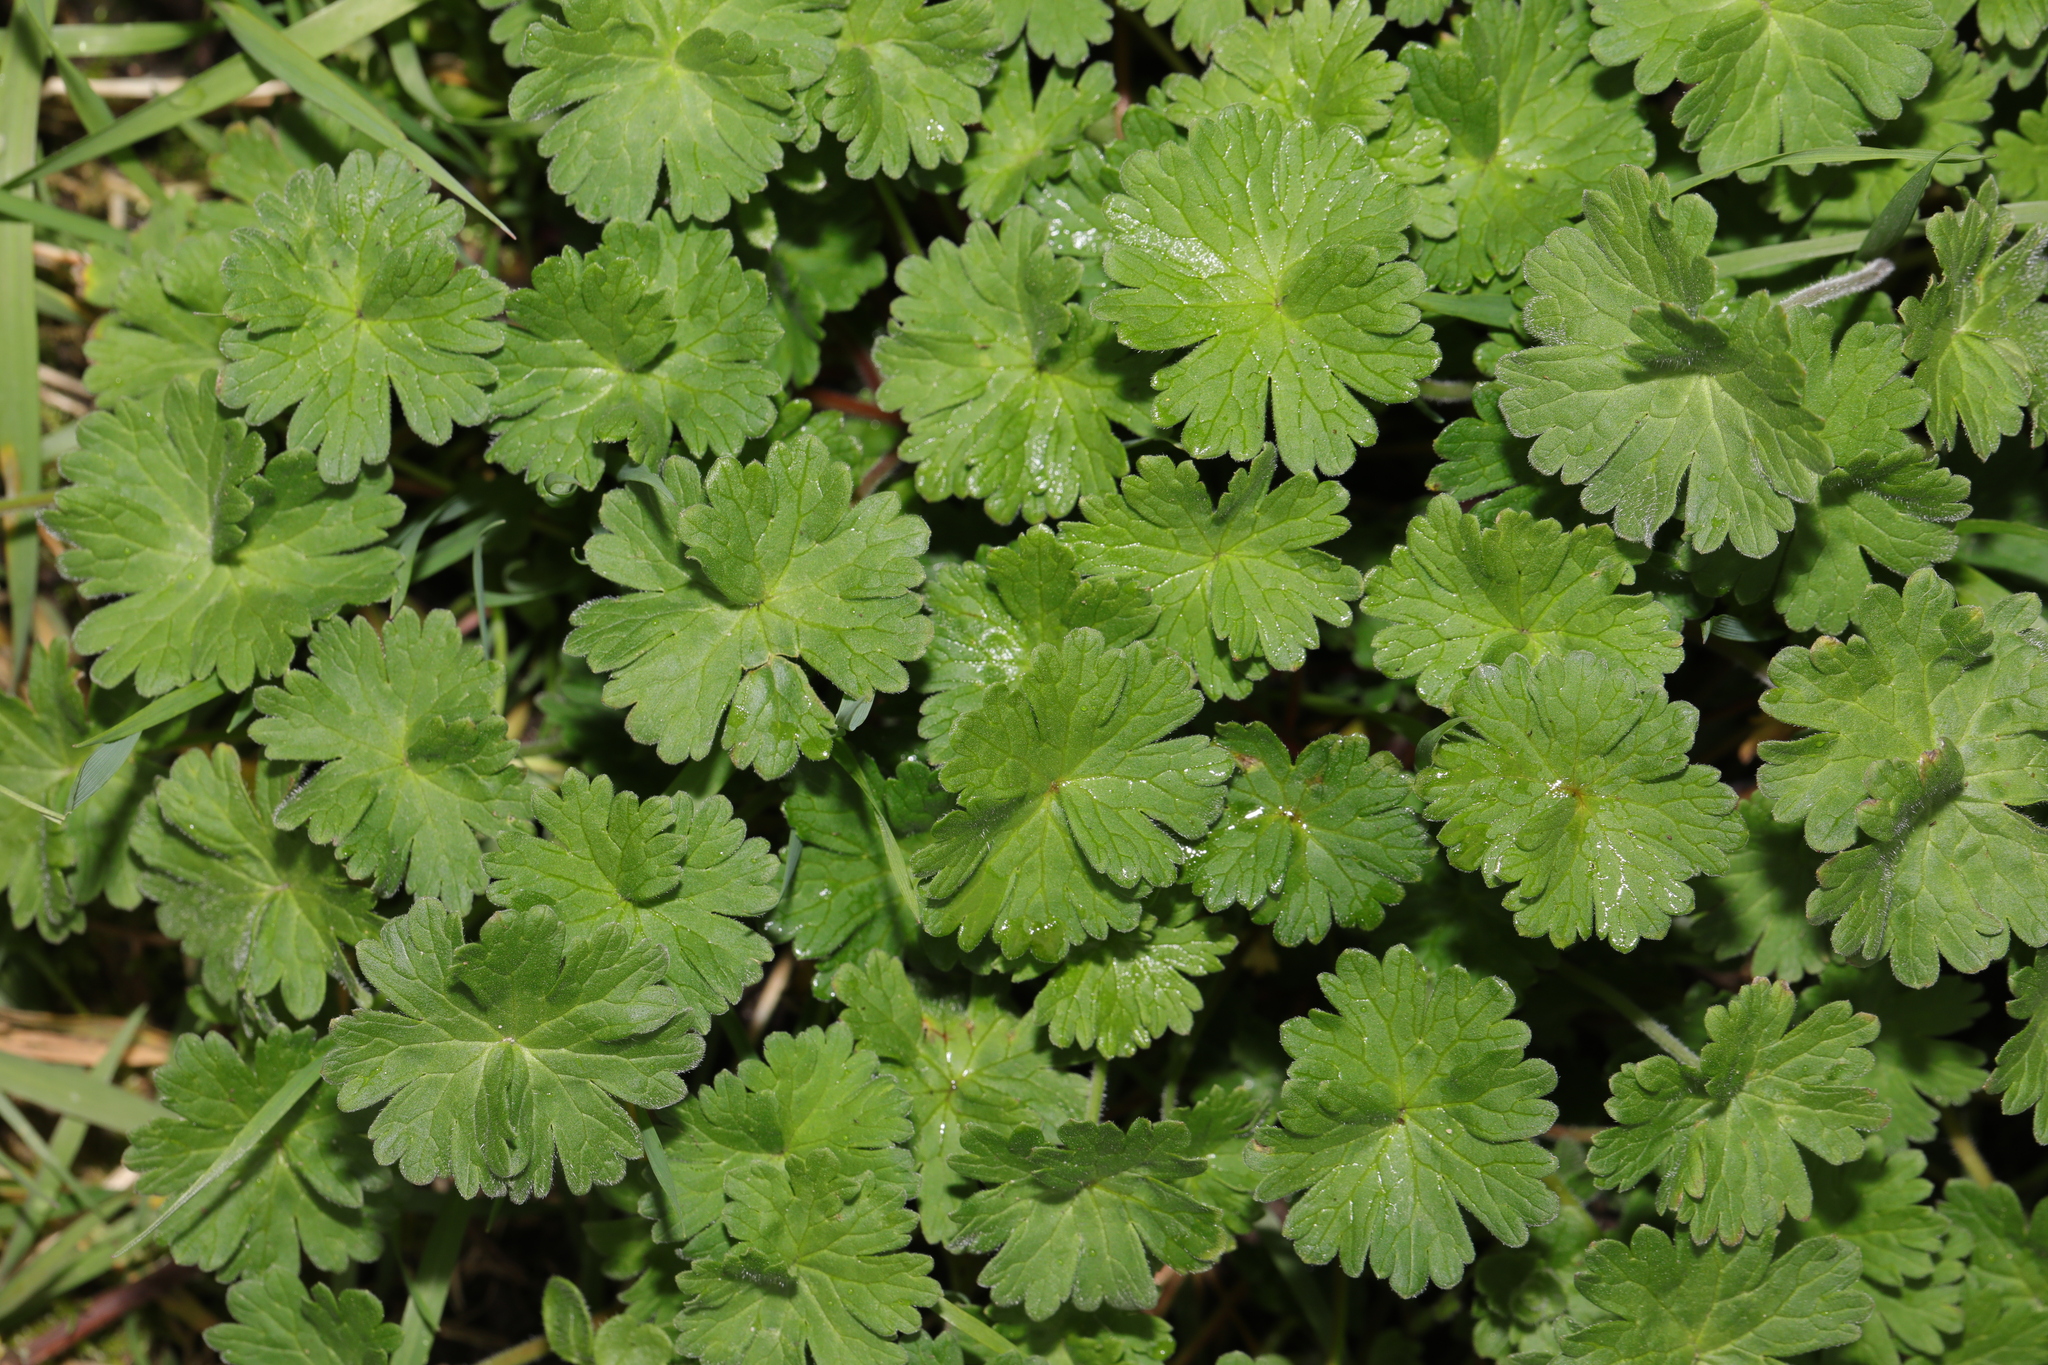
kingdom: Plantae
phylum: Tracheophyta
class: Magnoliopsida
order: Geraniales
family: Geraniaceae
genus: Geranium
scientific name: Geranium molle
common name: Dove's-foot crane's-bill
